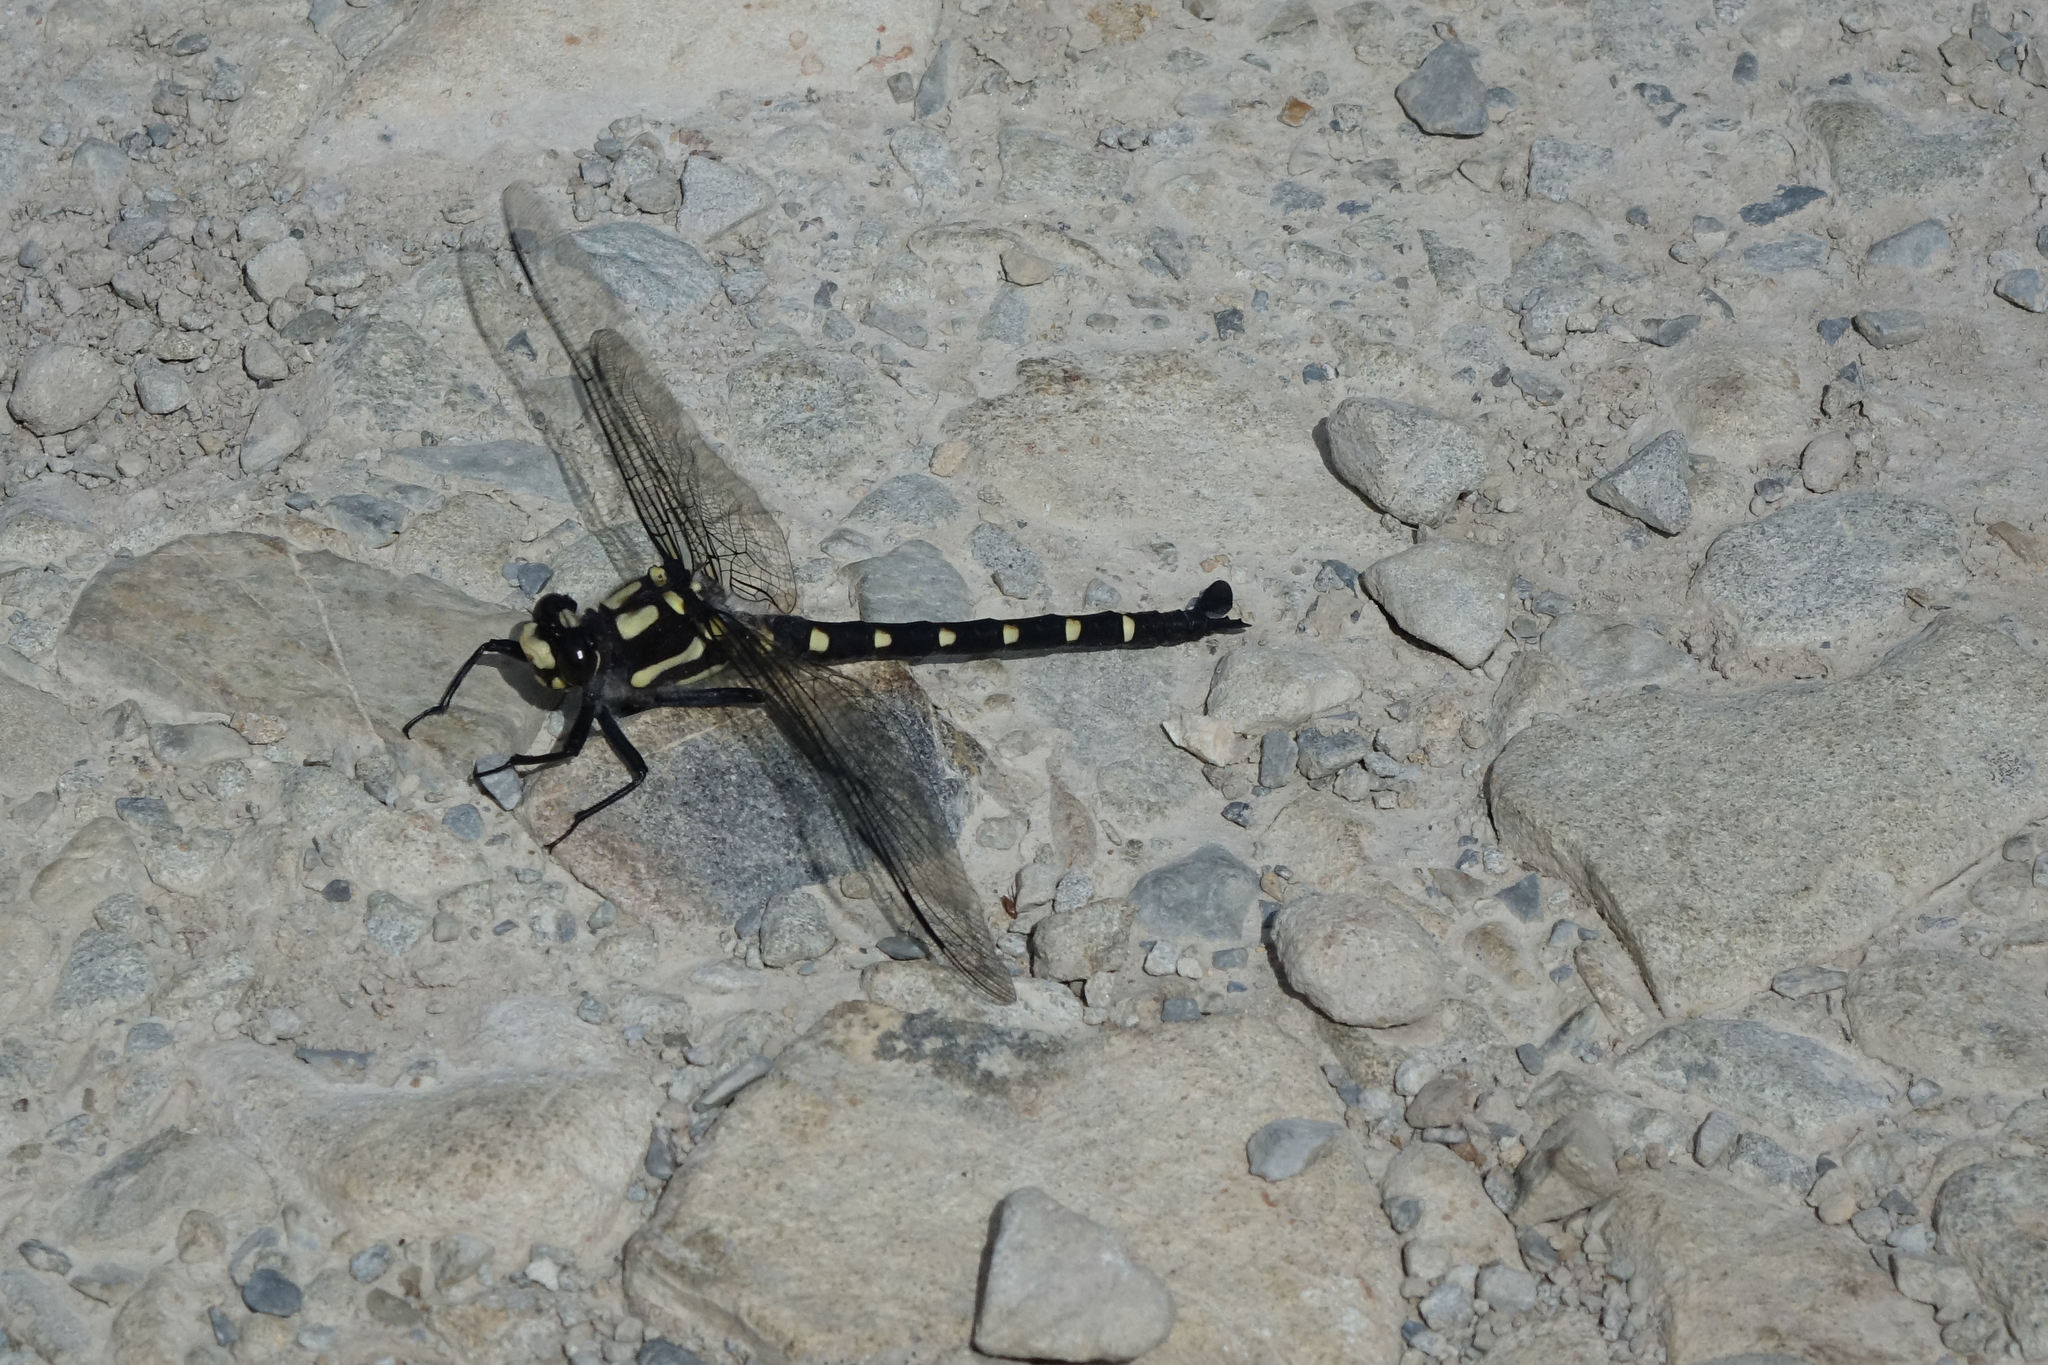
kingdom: Animalia
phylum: Arthropoda
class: Insecta
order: Odonata
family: Petaluridae
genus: Uropetala
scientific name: Uropetala chiltoni
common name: Mountain giant dragonfly
